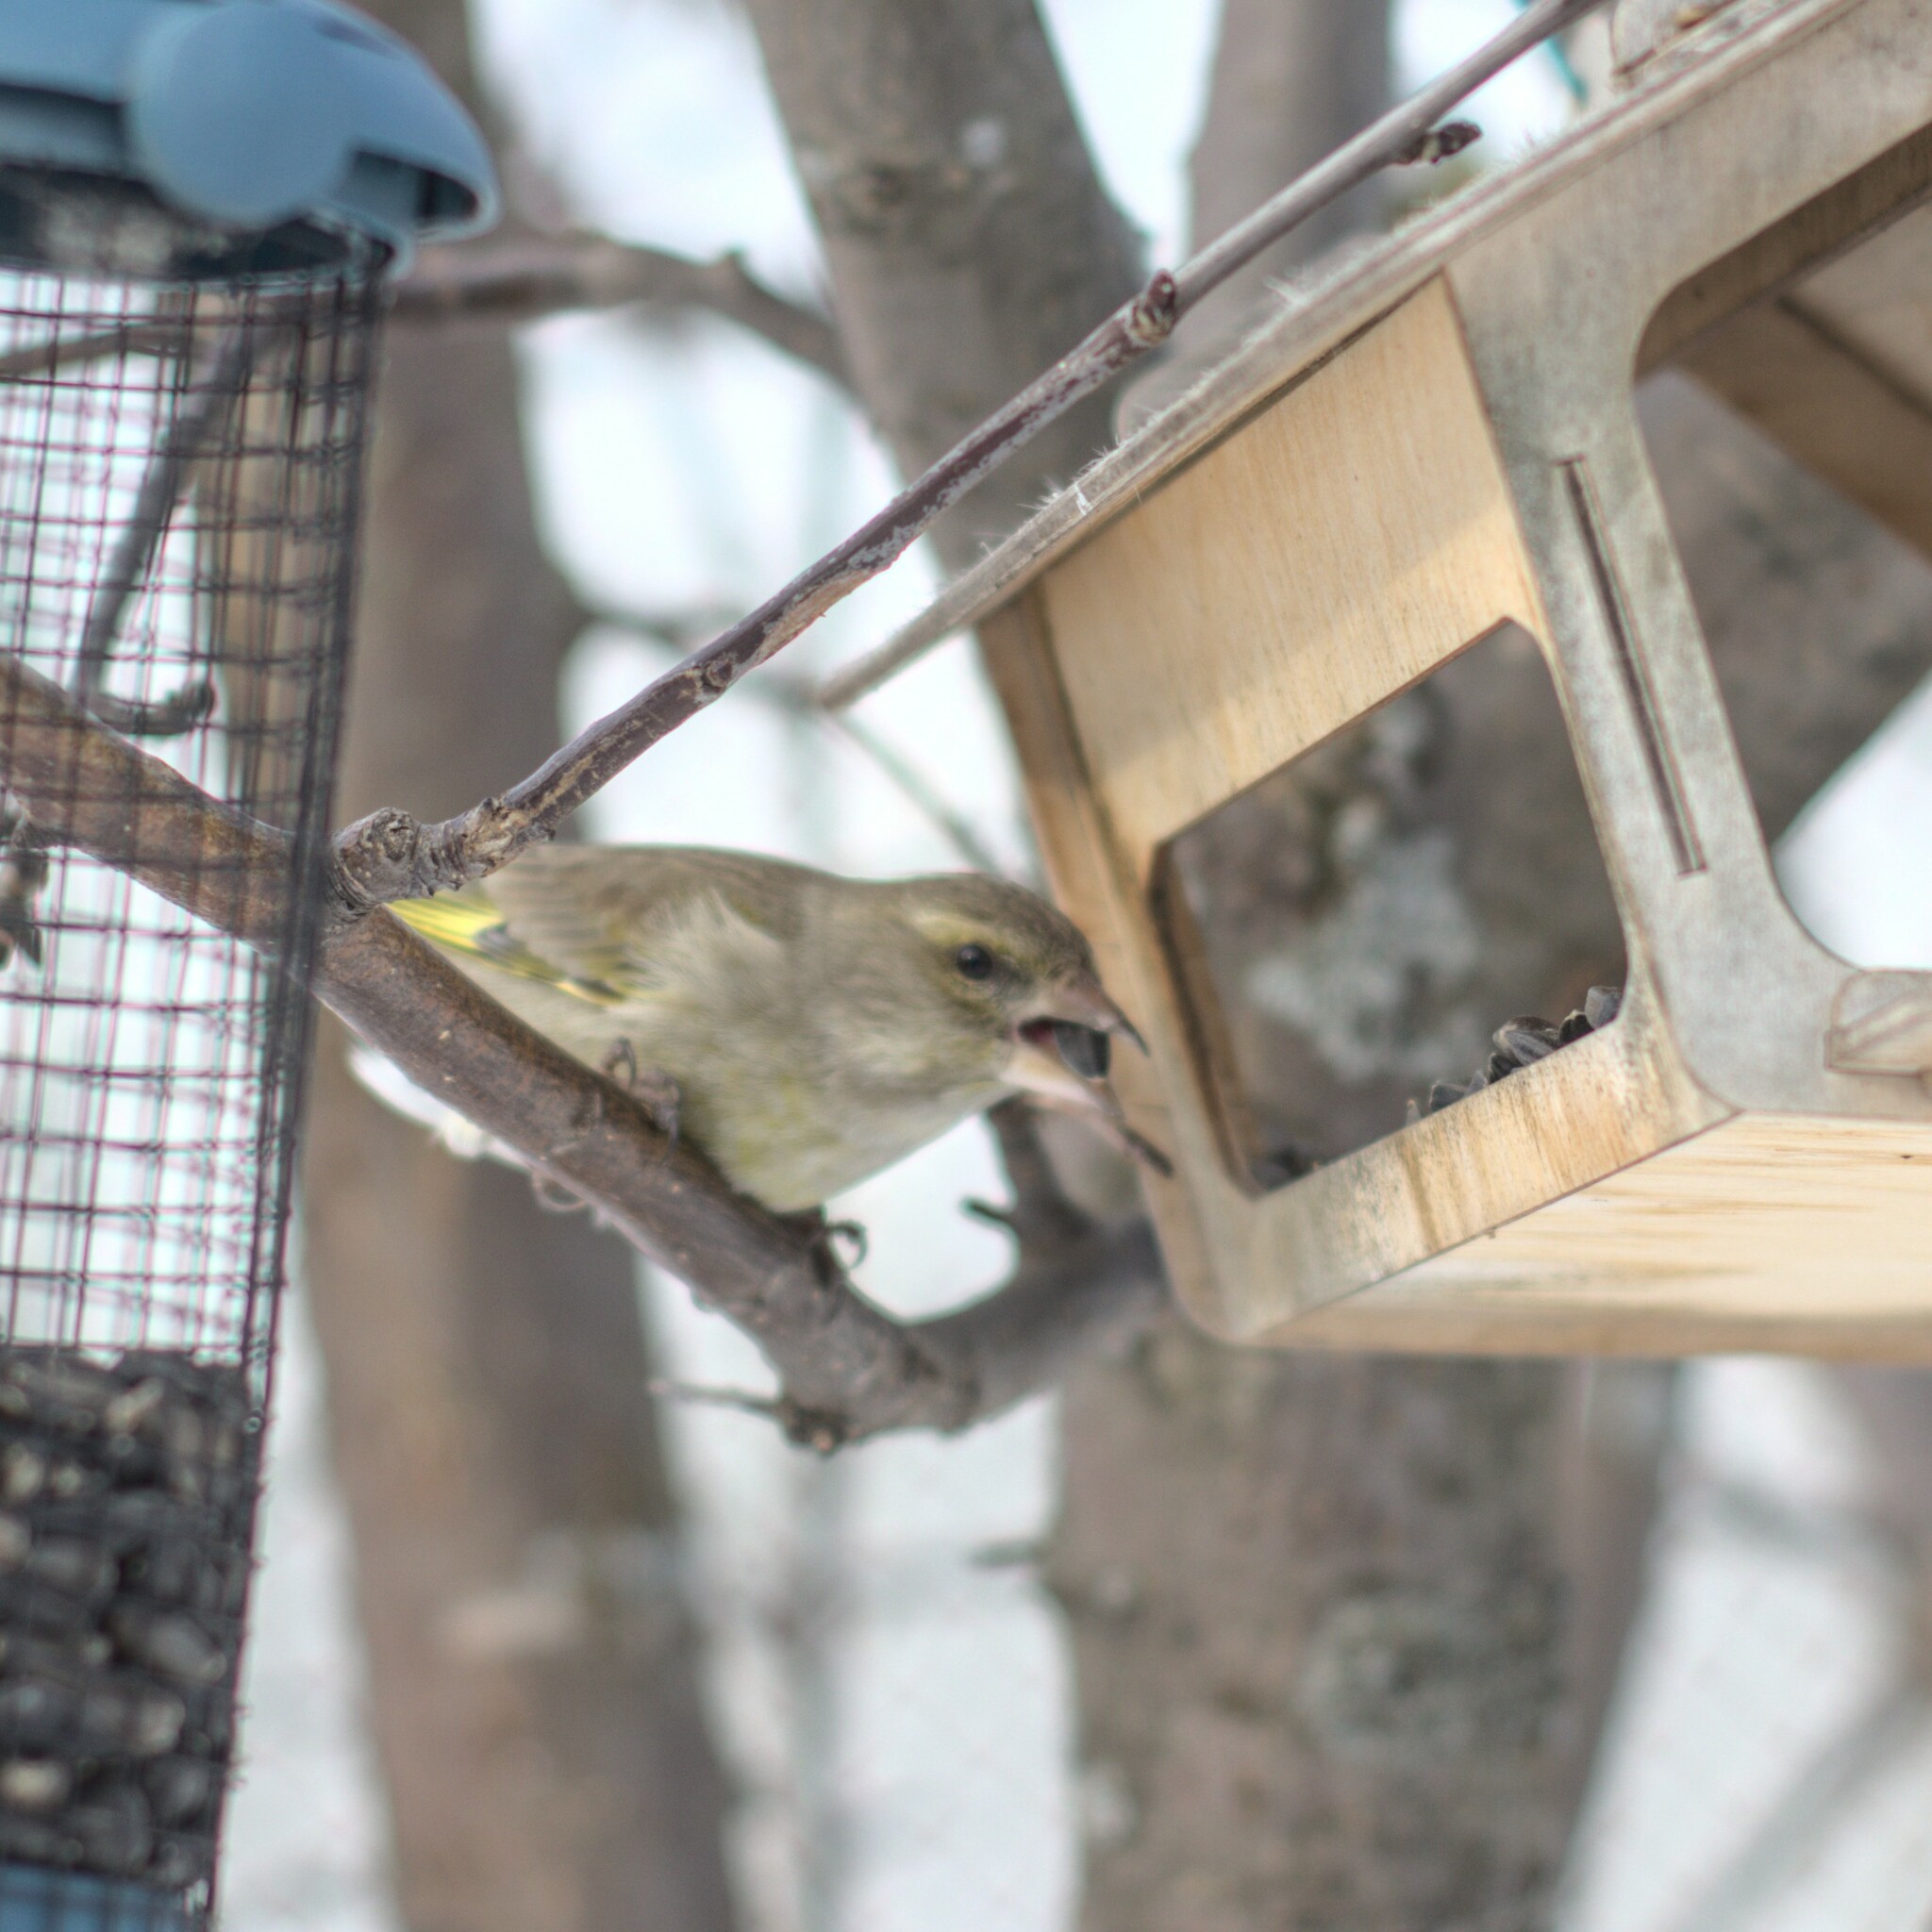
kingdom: Plantae
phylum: Tracheophyta
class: Liliopsida
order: Poales
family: Poaceae
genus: Chloris
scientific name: Chloris chloris
